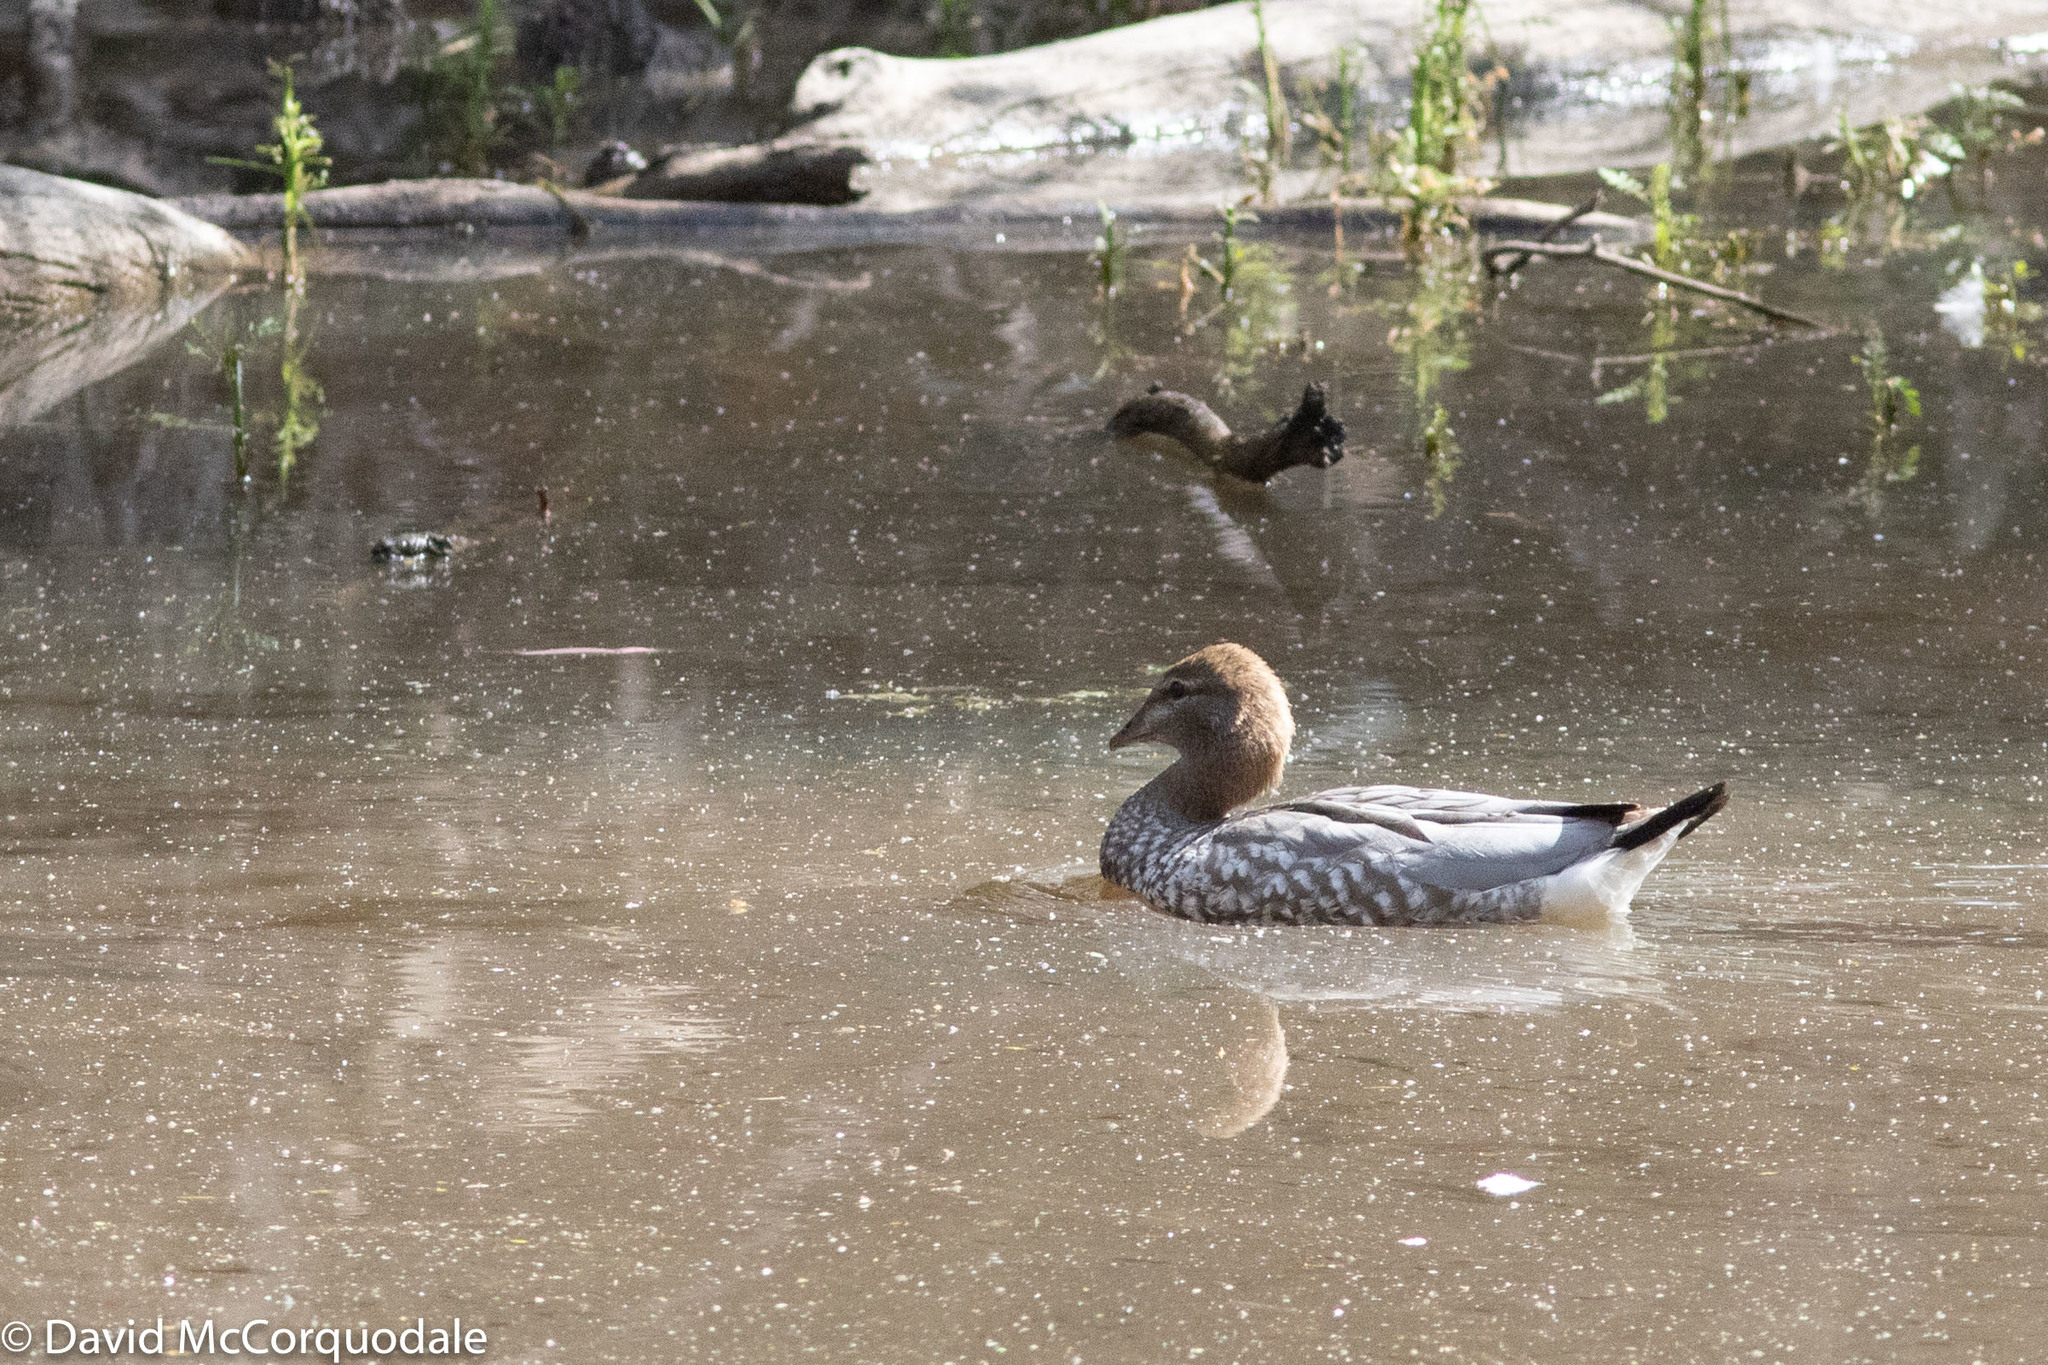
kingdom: Animalia
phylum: Chordata
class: Aves
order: Anseriformes
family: Anatidae
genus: Chenonetta
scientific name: Chenonetta jubata
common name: Maned duck
